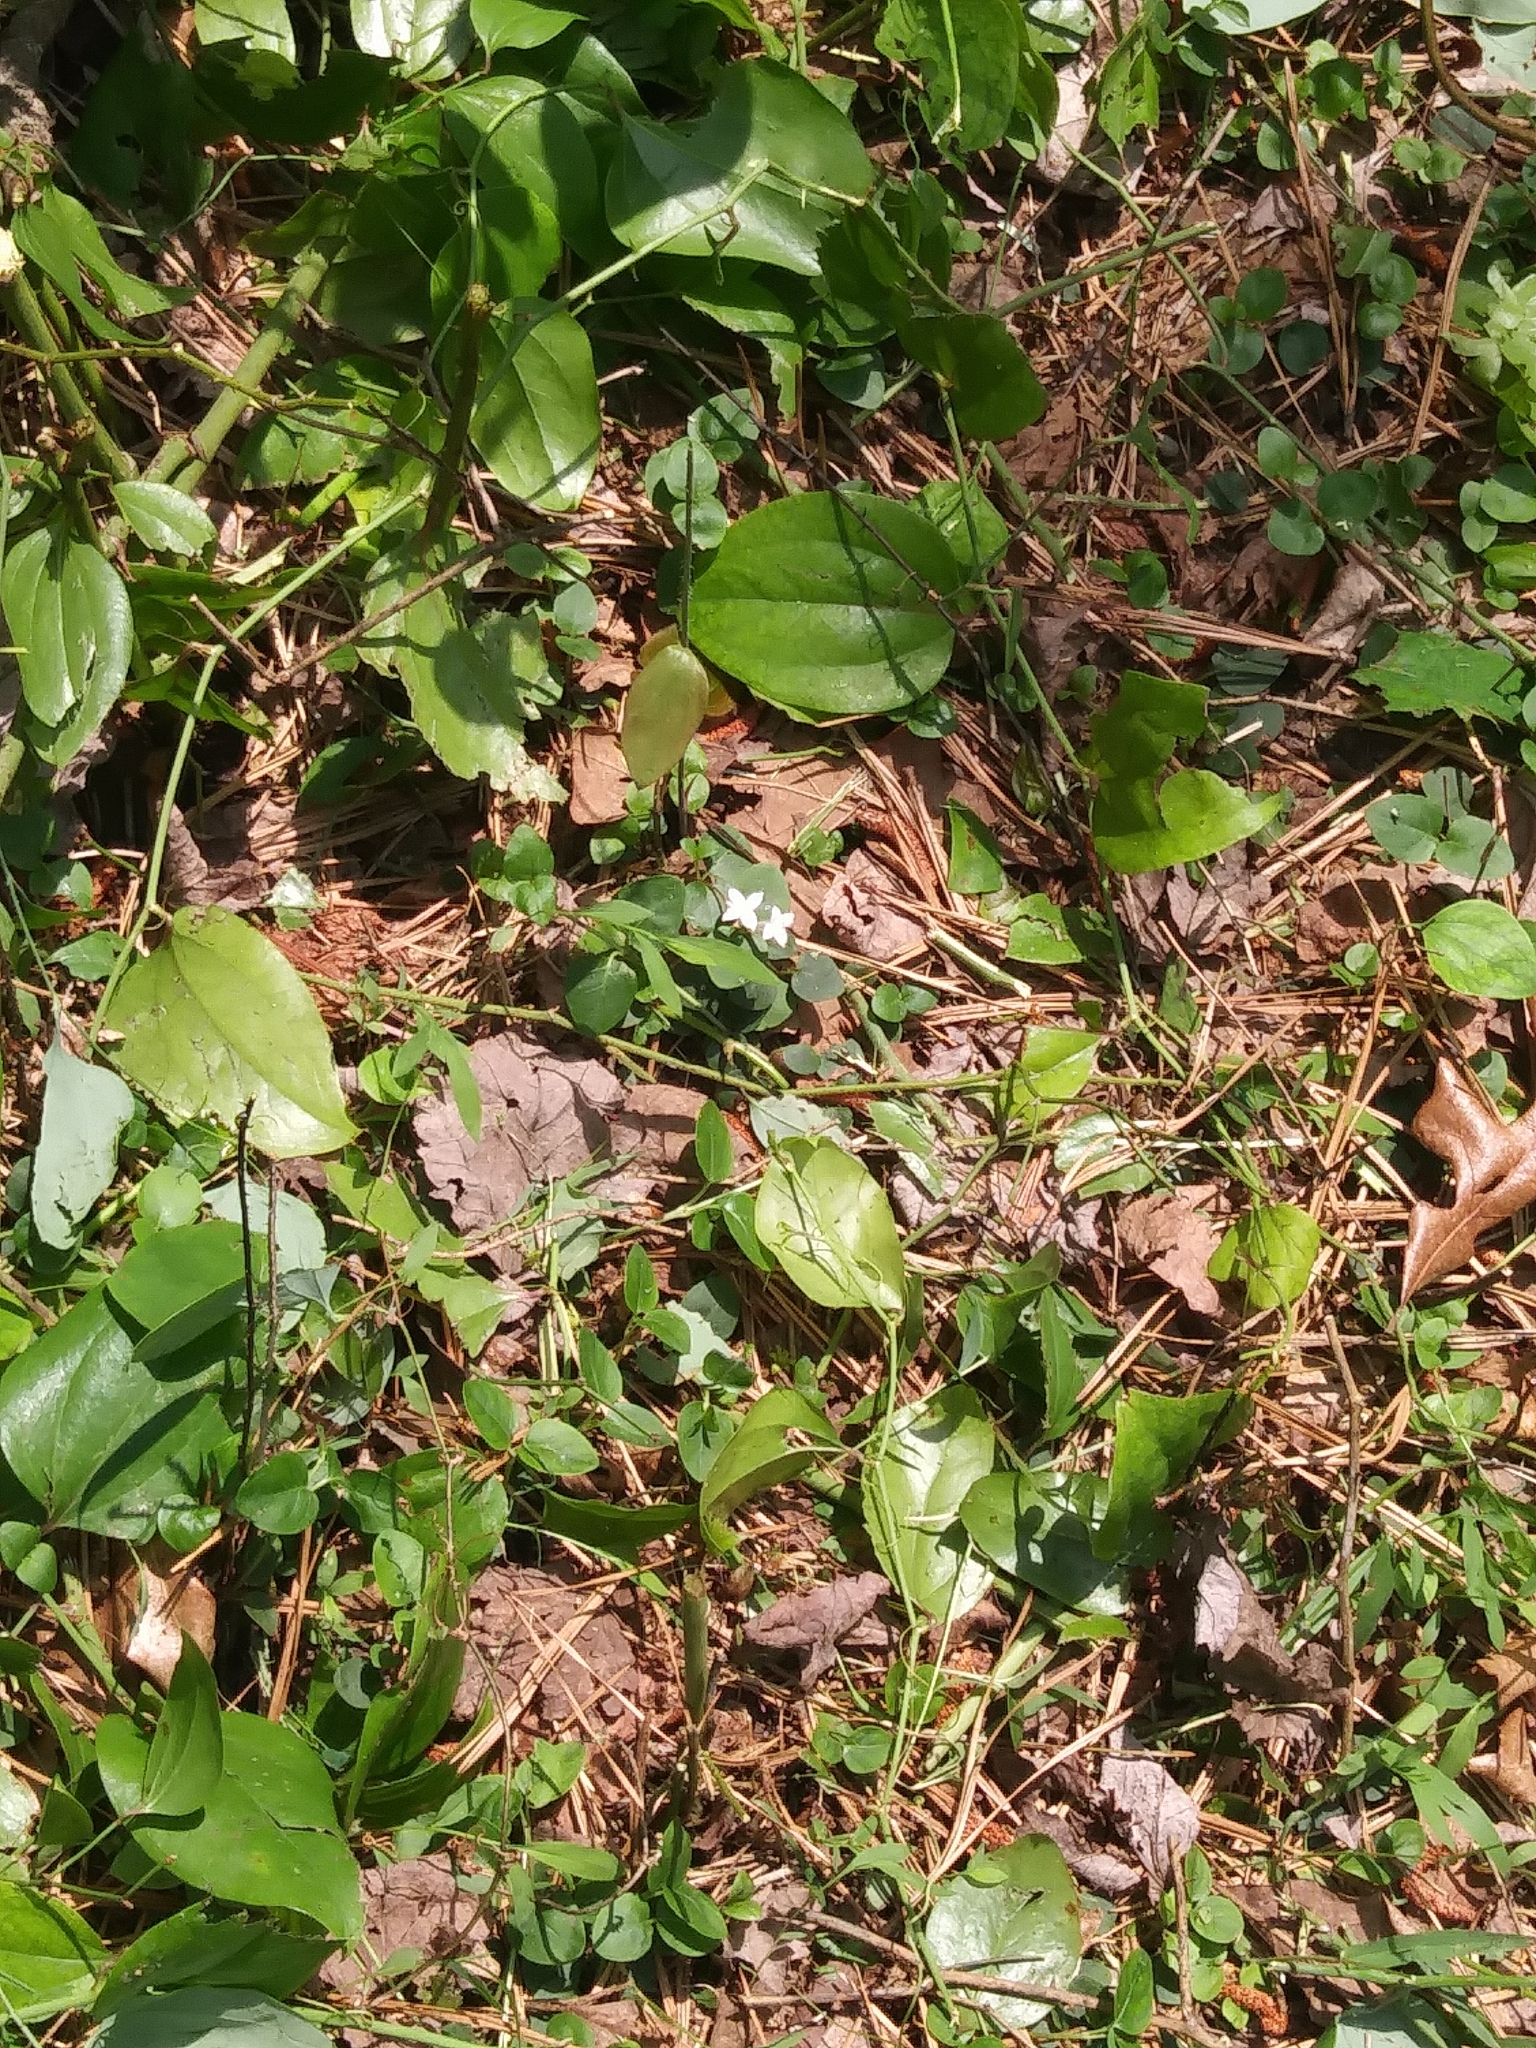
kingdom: Plantae
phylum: Tracheophyta
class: Magnoliopsida
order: Gentianales
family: Rubiaceae
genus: Mitchella
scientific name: Mitchella repens
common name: Partridge-berry
